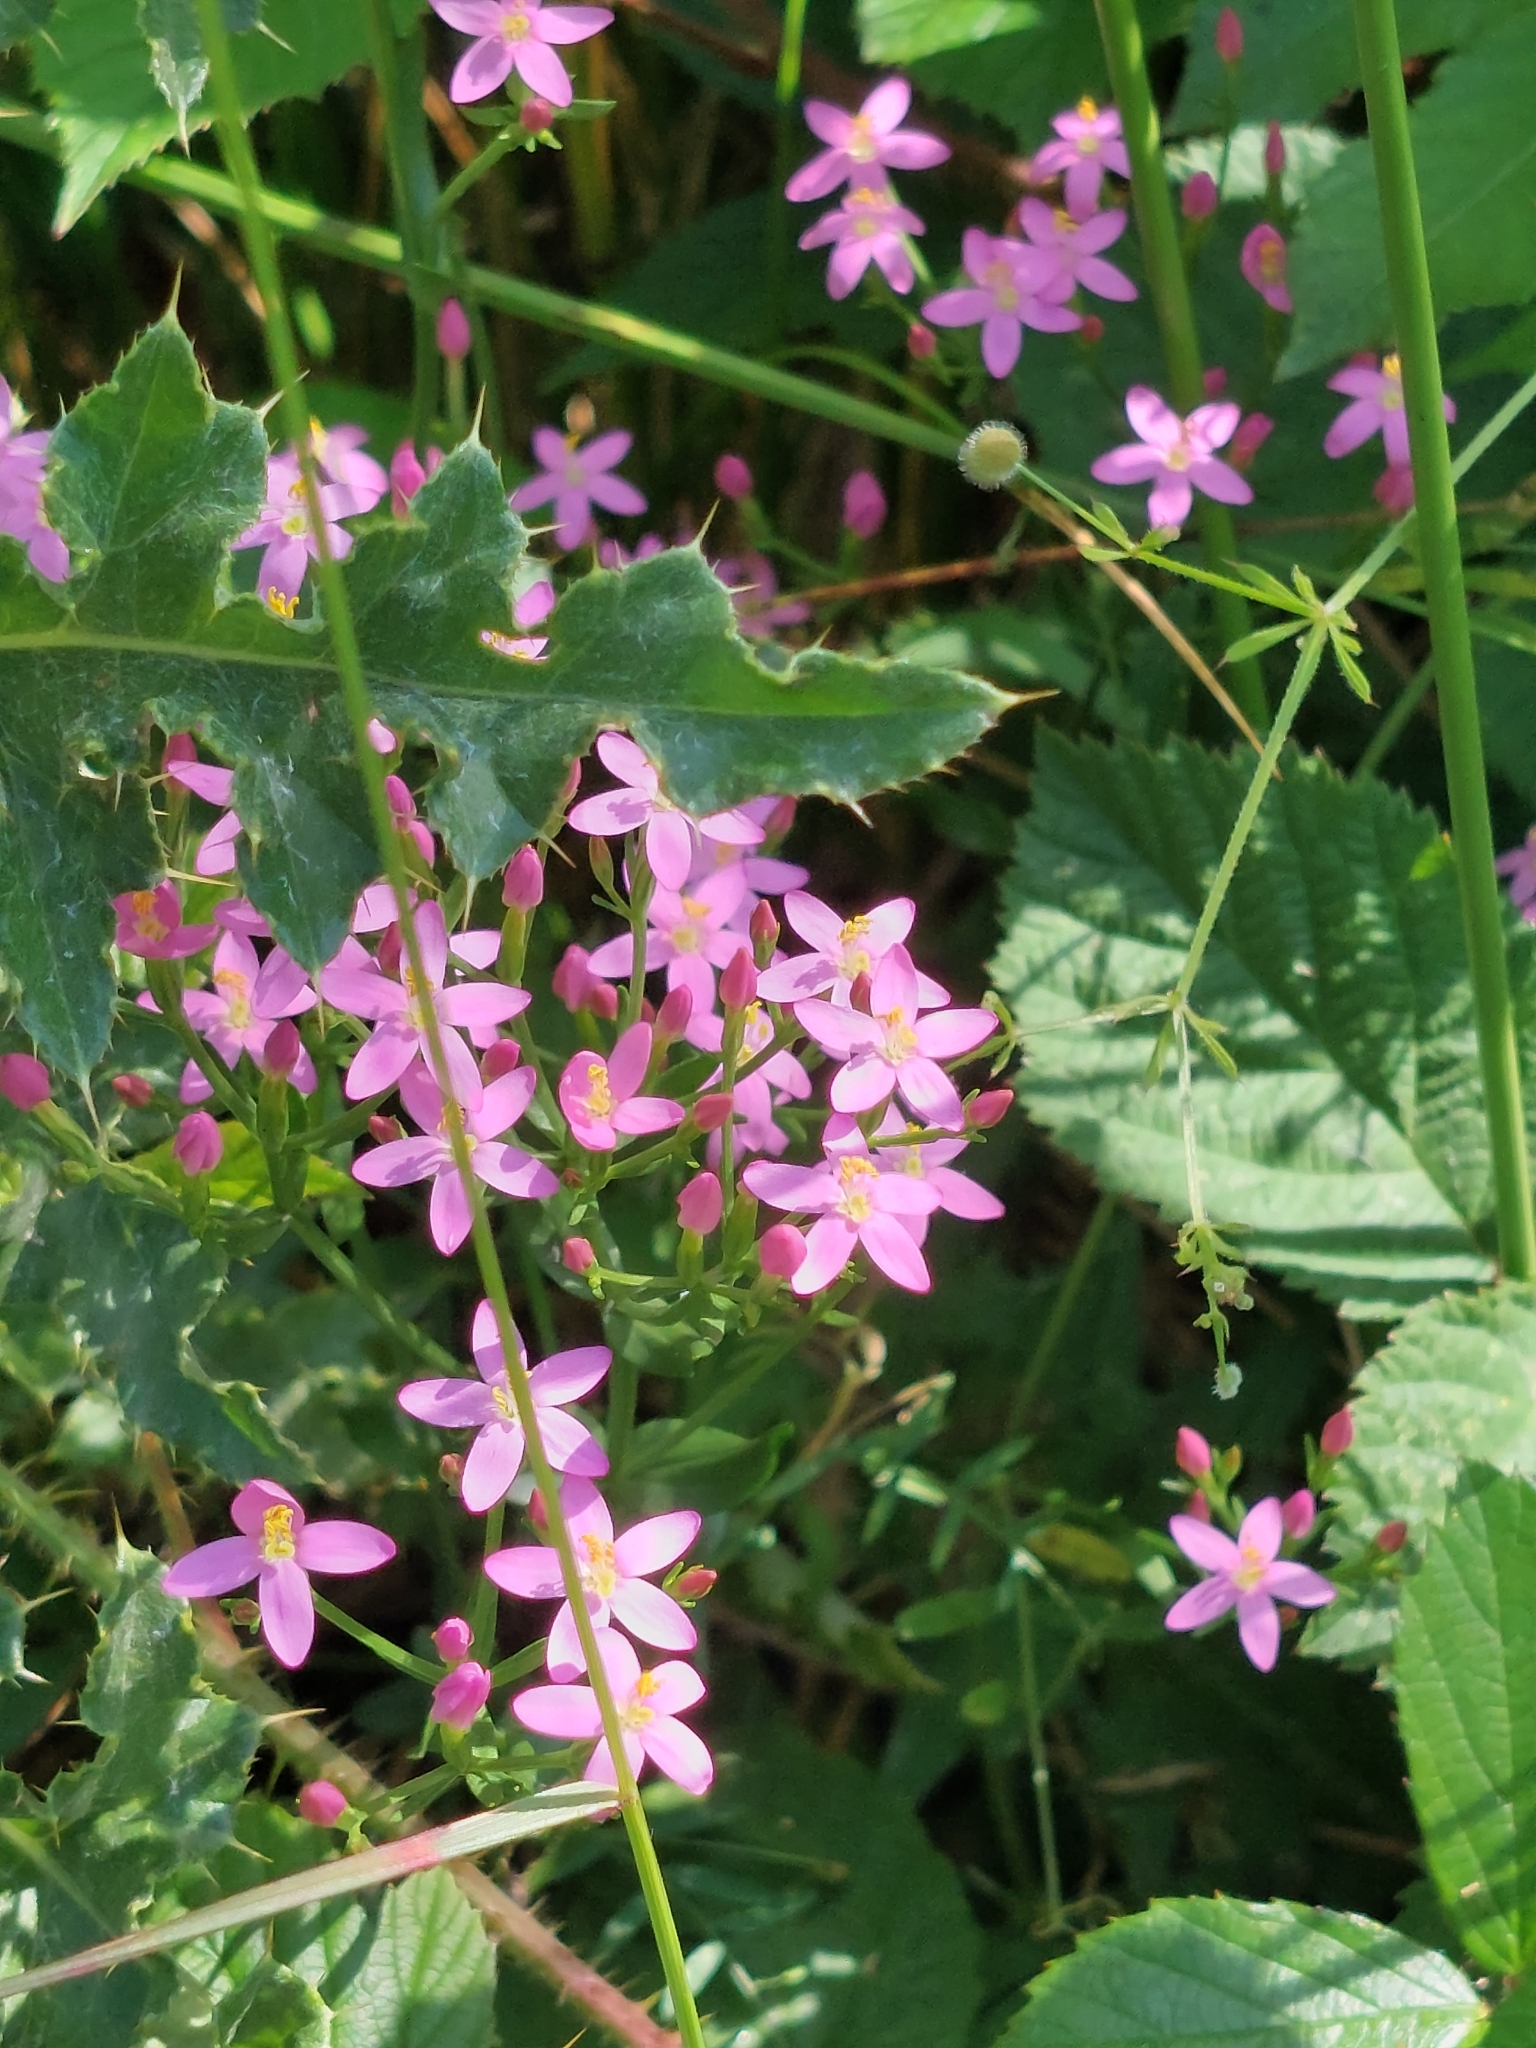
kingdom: Plantae
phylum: Tracheophyta
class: Magnoliopsida
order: Gentianales
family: Gentianaceae
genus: Centaurium
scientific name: Centaurium erythraea
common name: Common centaury
